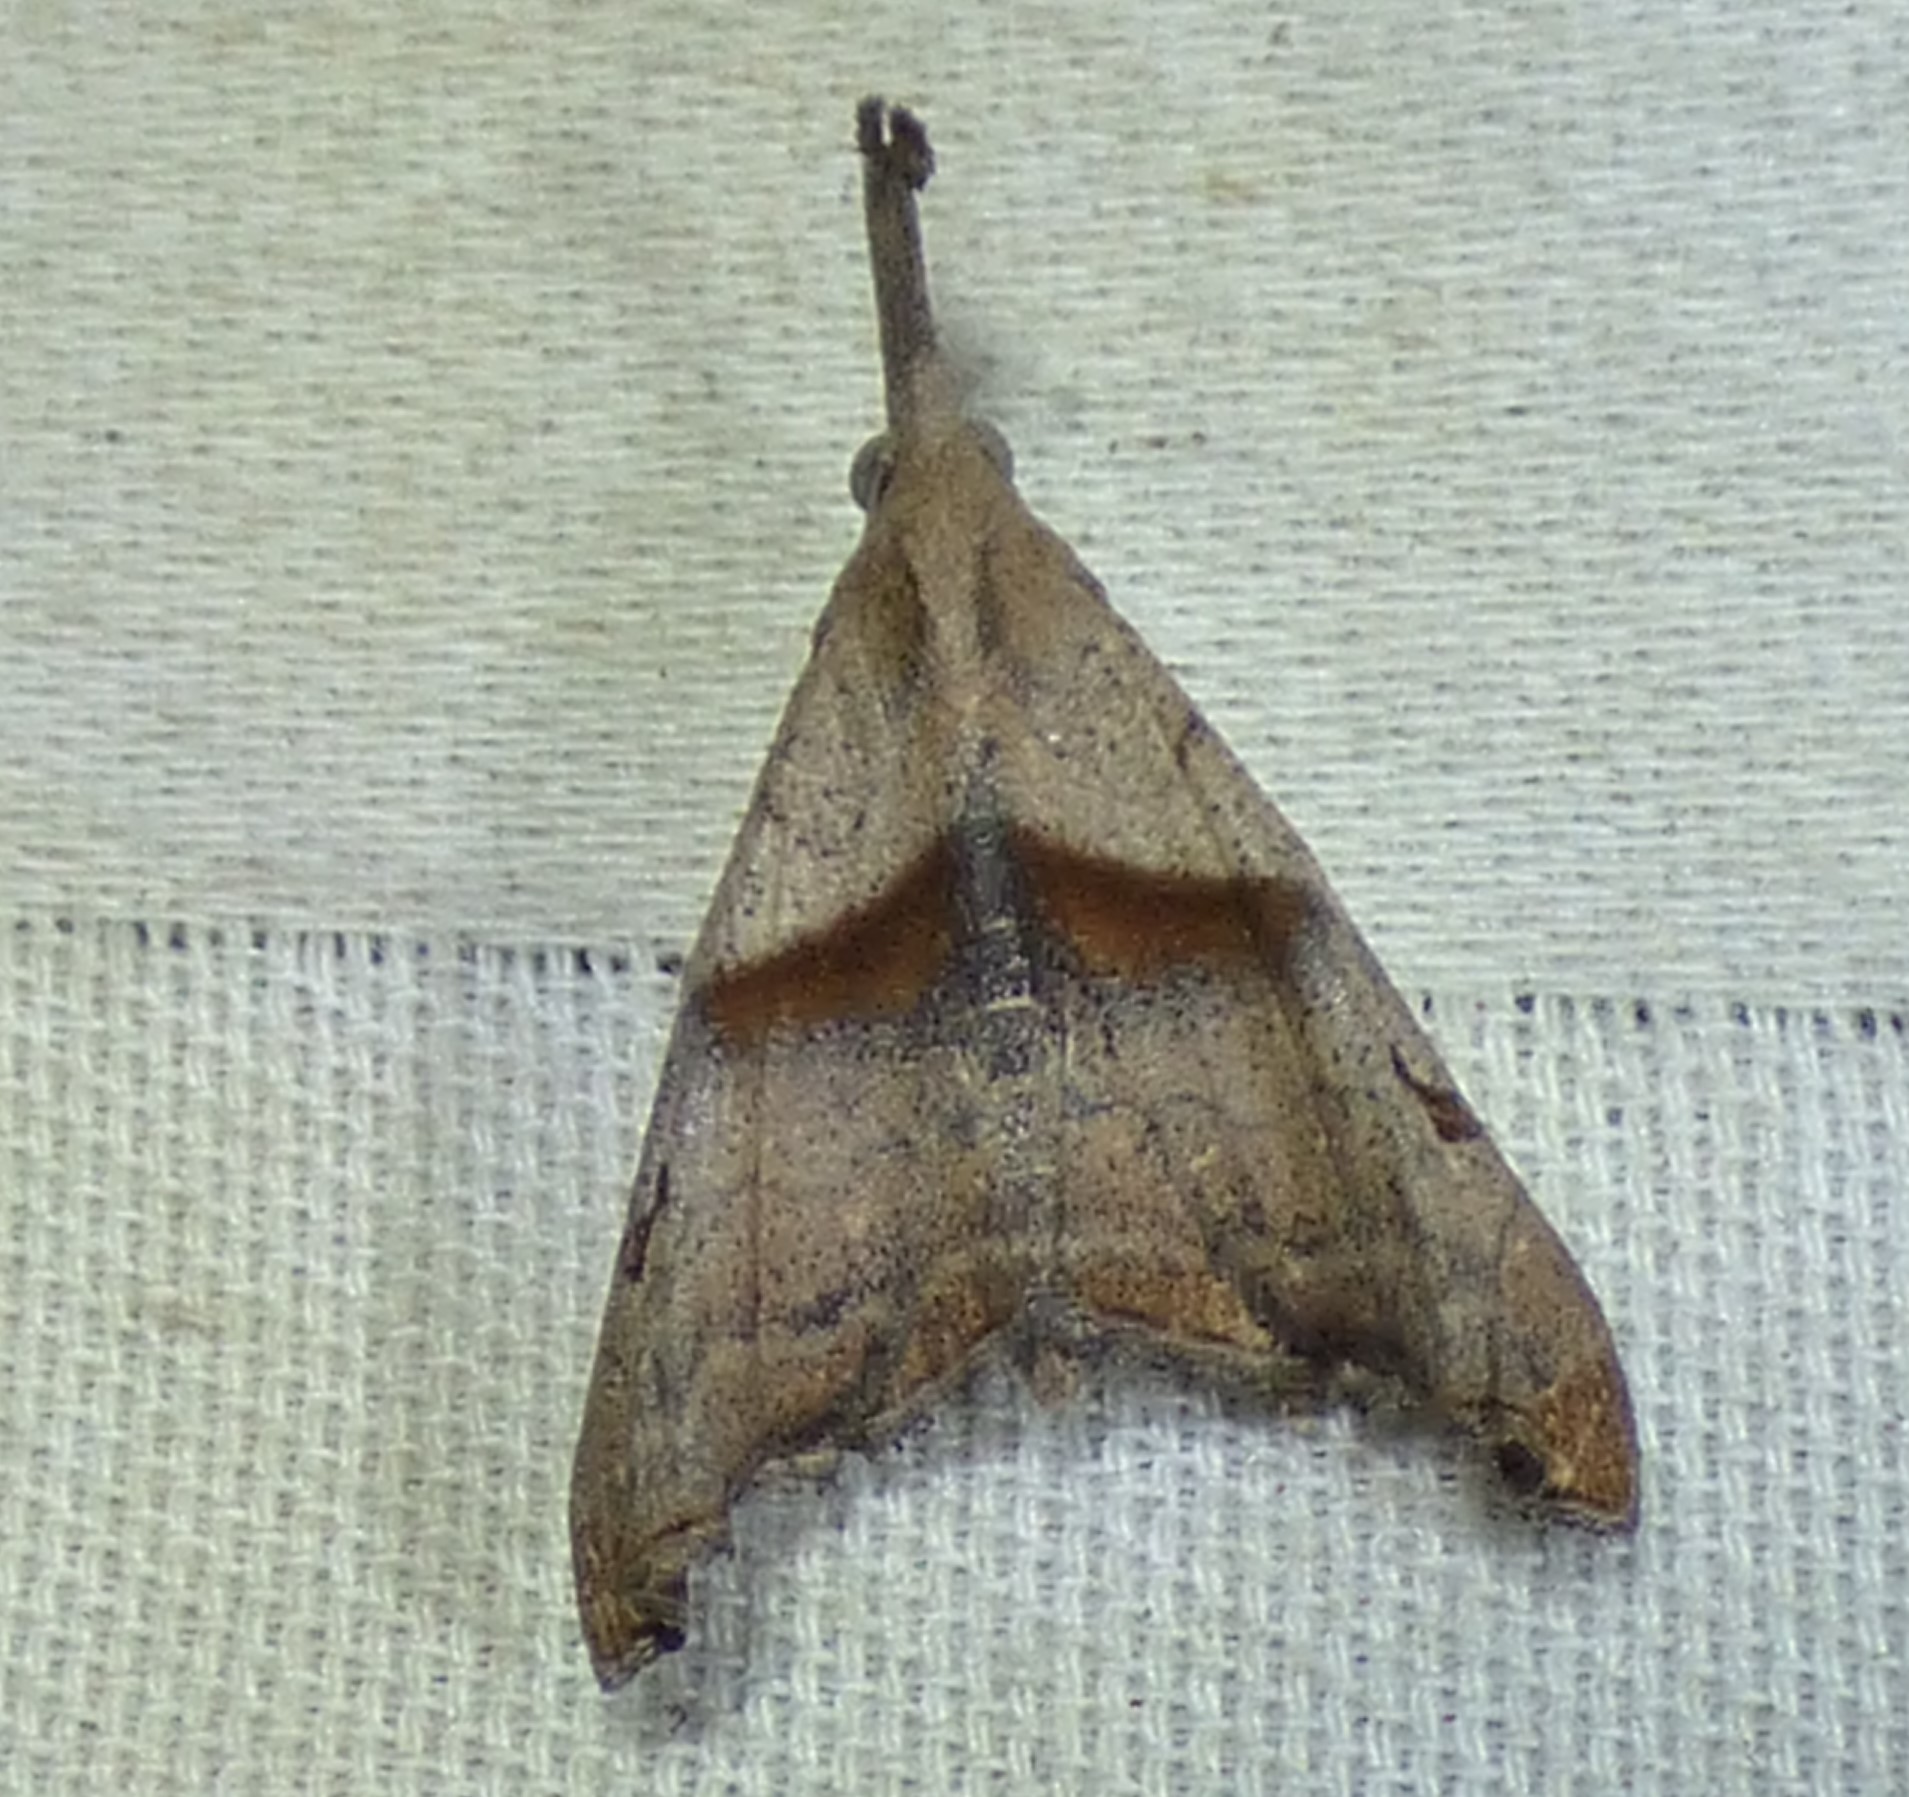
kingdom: Animalia
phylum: Arthropoda
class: Insecta
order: Lepidoptera
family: Erebidae
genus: Palthis
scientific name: Palthis angulalis
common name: Dark-spotted palthis moth
